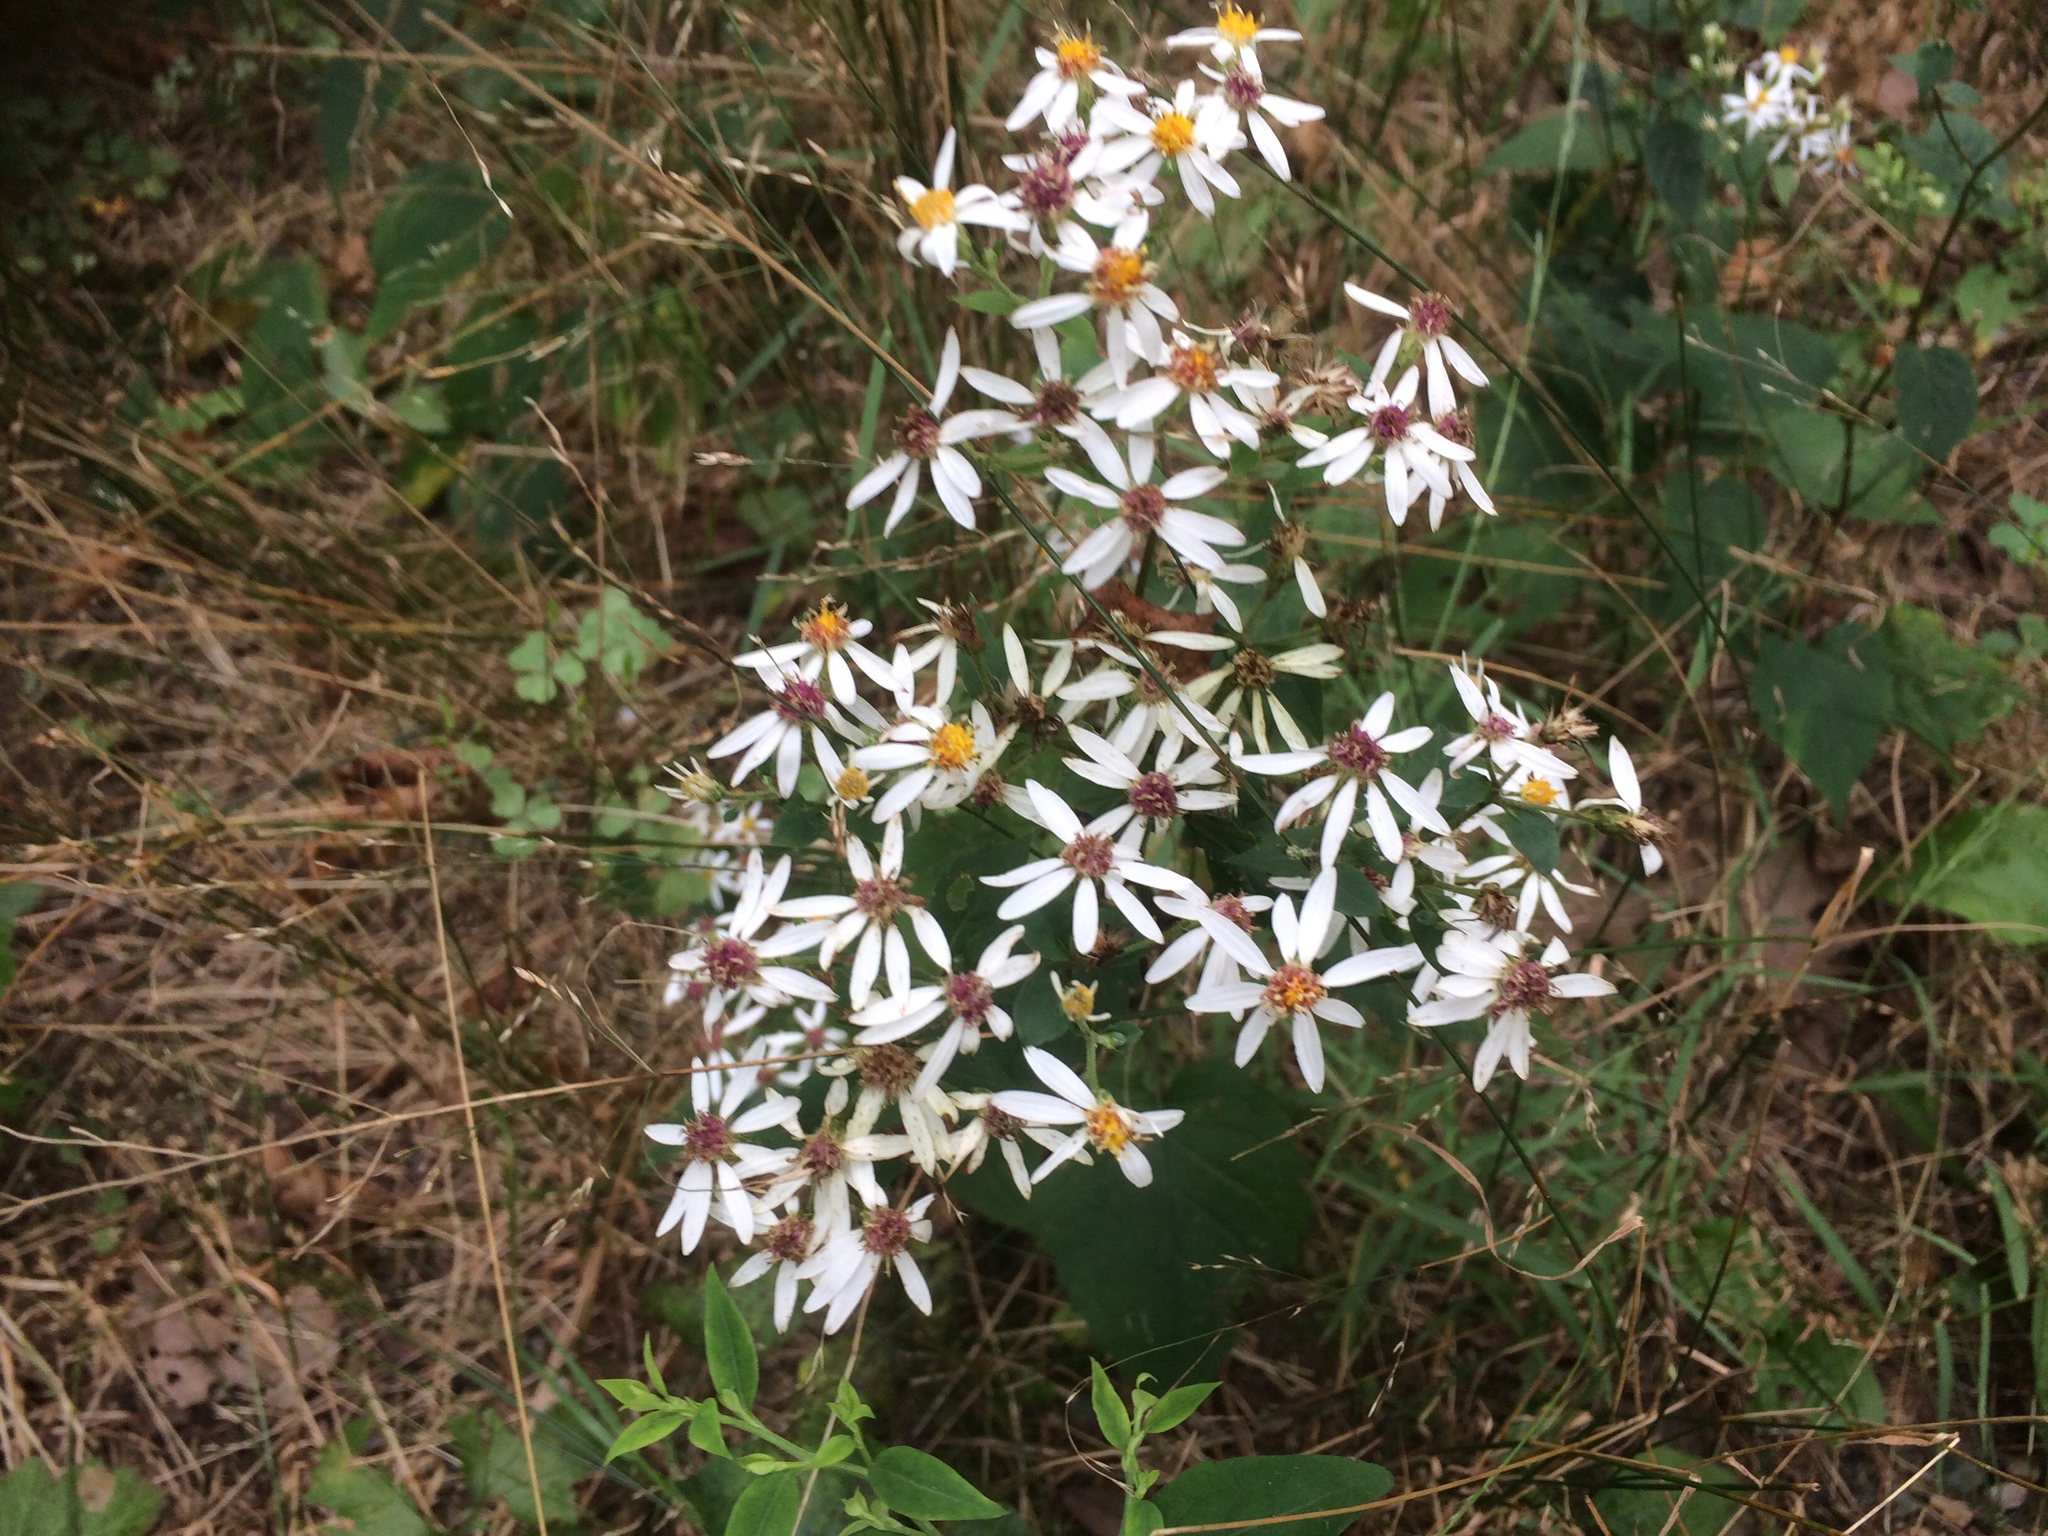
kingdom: Plantae
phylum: Tracheophyta
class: Magnoliopsida
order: Asterales
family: Asteraceae
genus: Symphyotrichum
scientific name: Symphyotrichum cordifolium
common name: Beeweed
